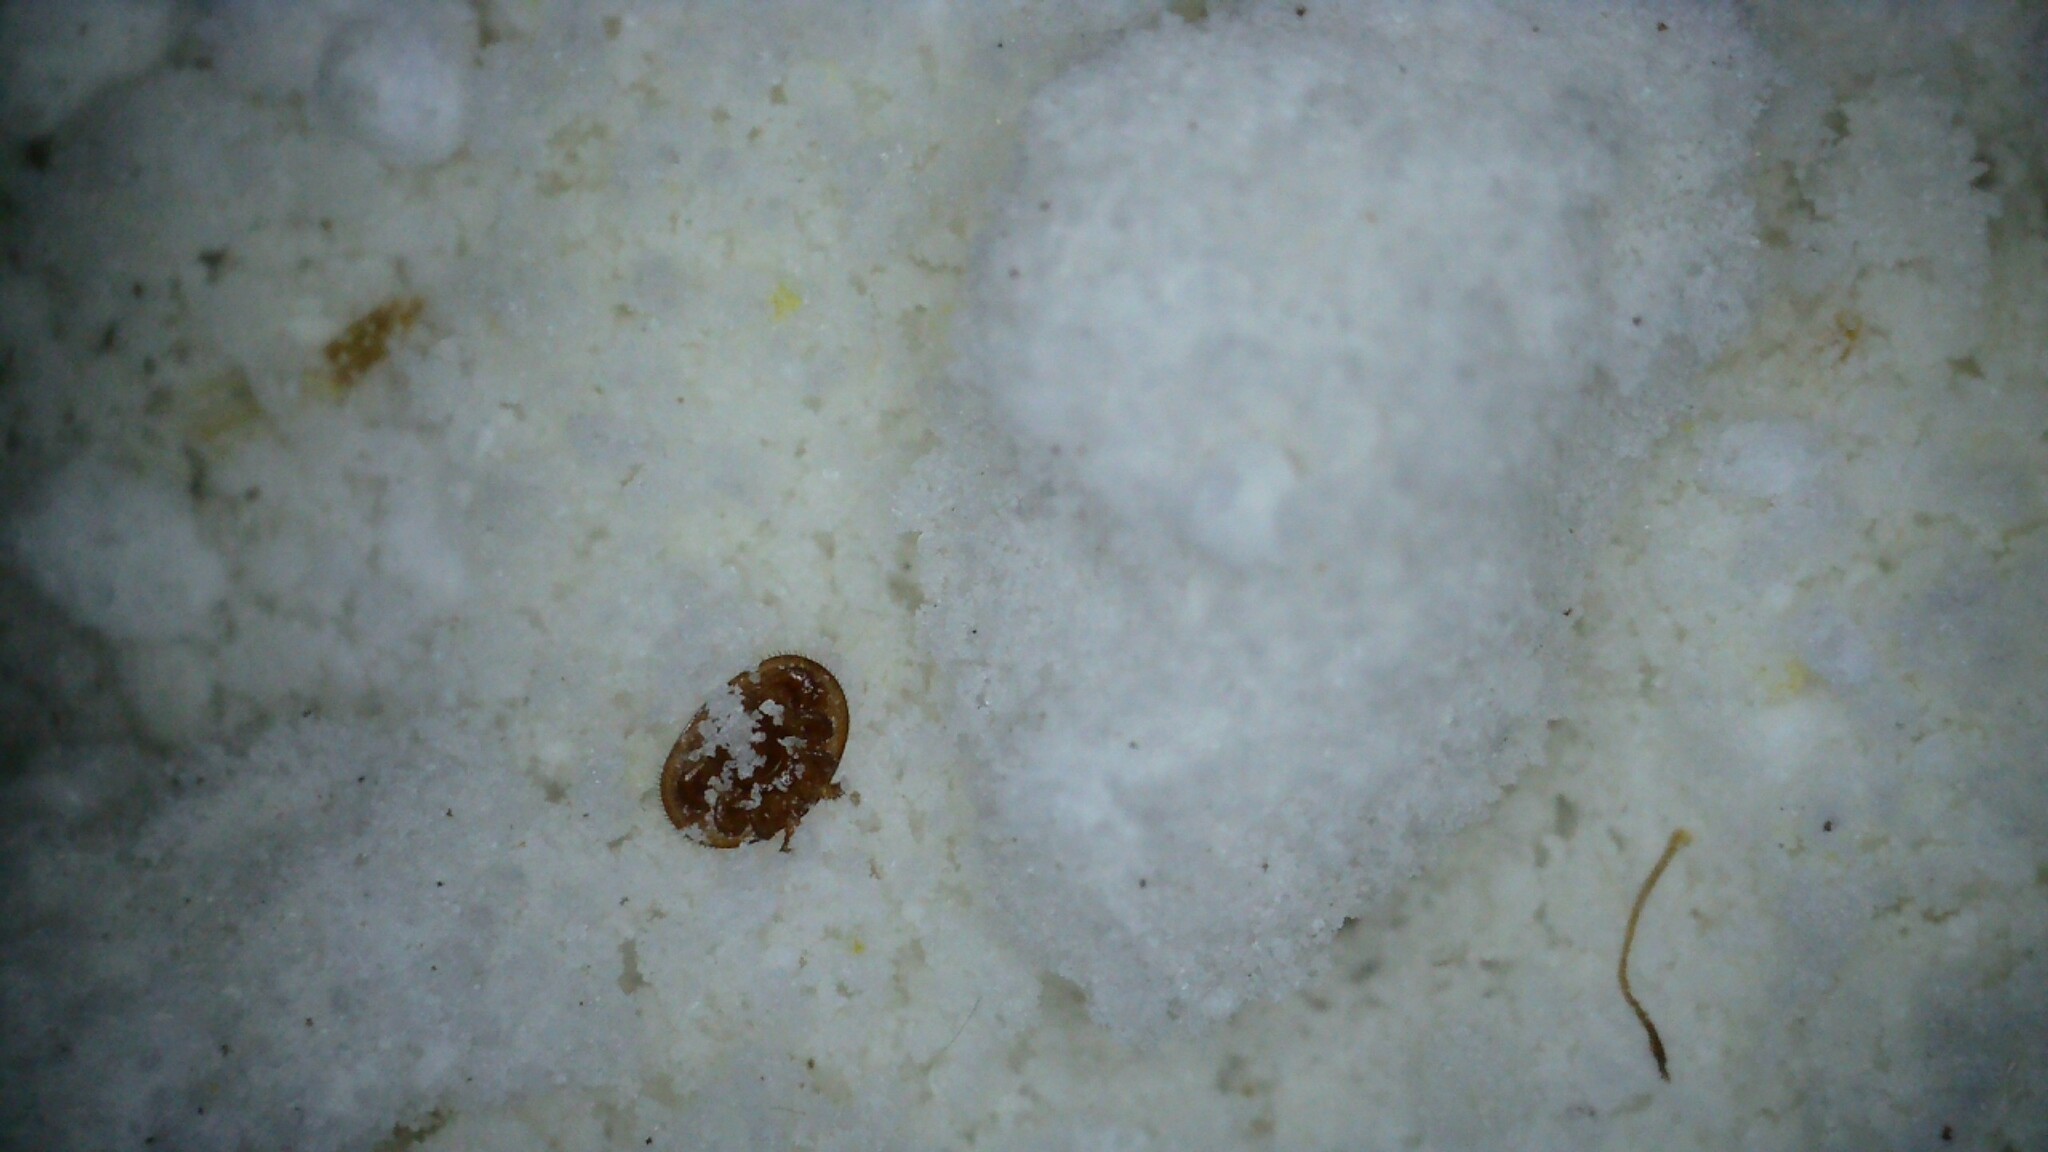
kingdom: Animalia
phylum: Arthropoda
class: Arachnida
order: Mesostigmata
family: Varroidae
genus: Varroa
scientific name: Varroa destructor
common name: Honey bee mite
